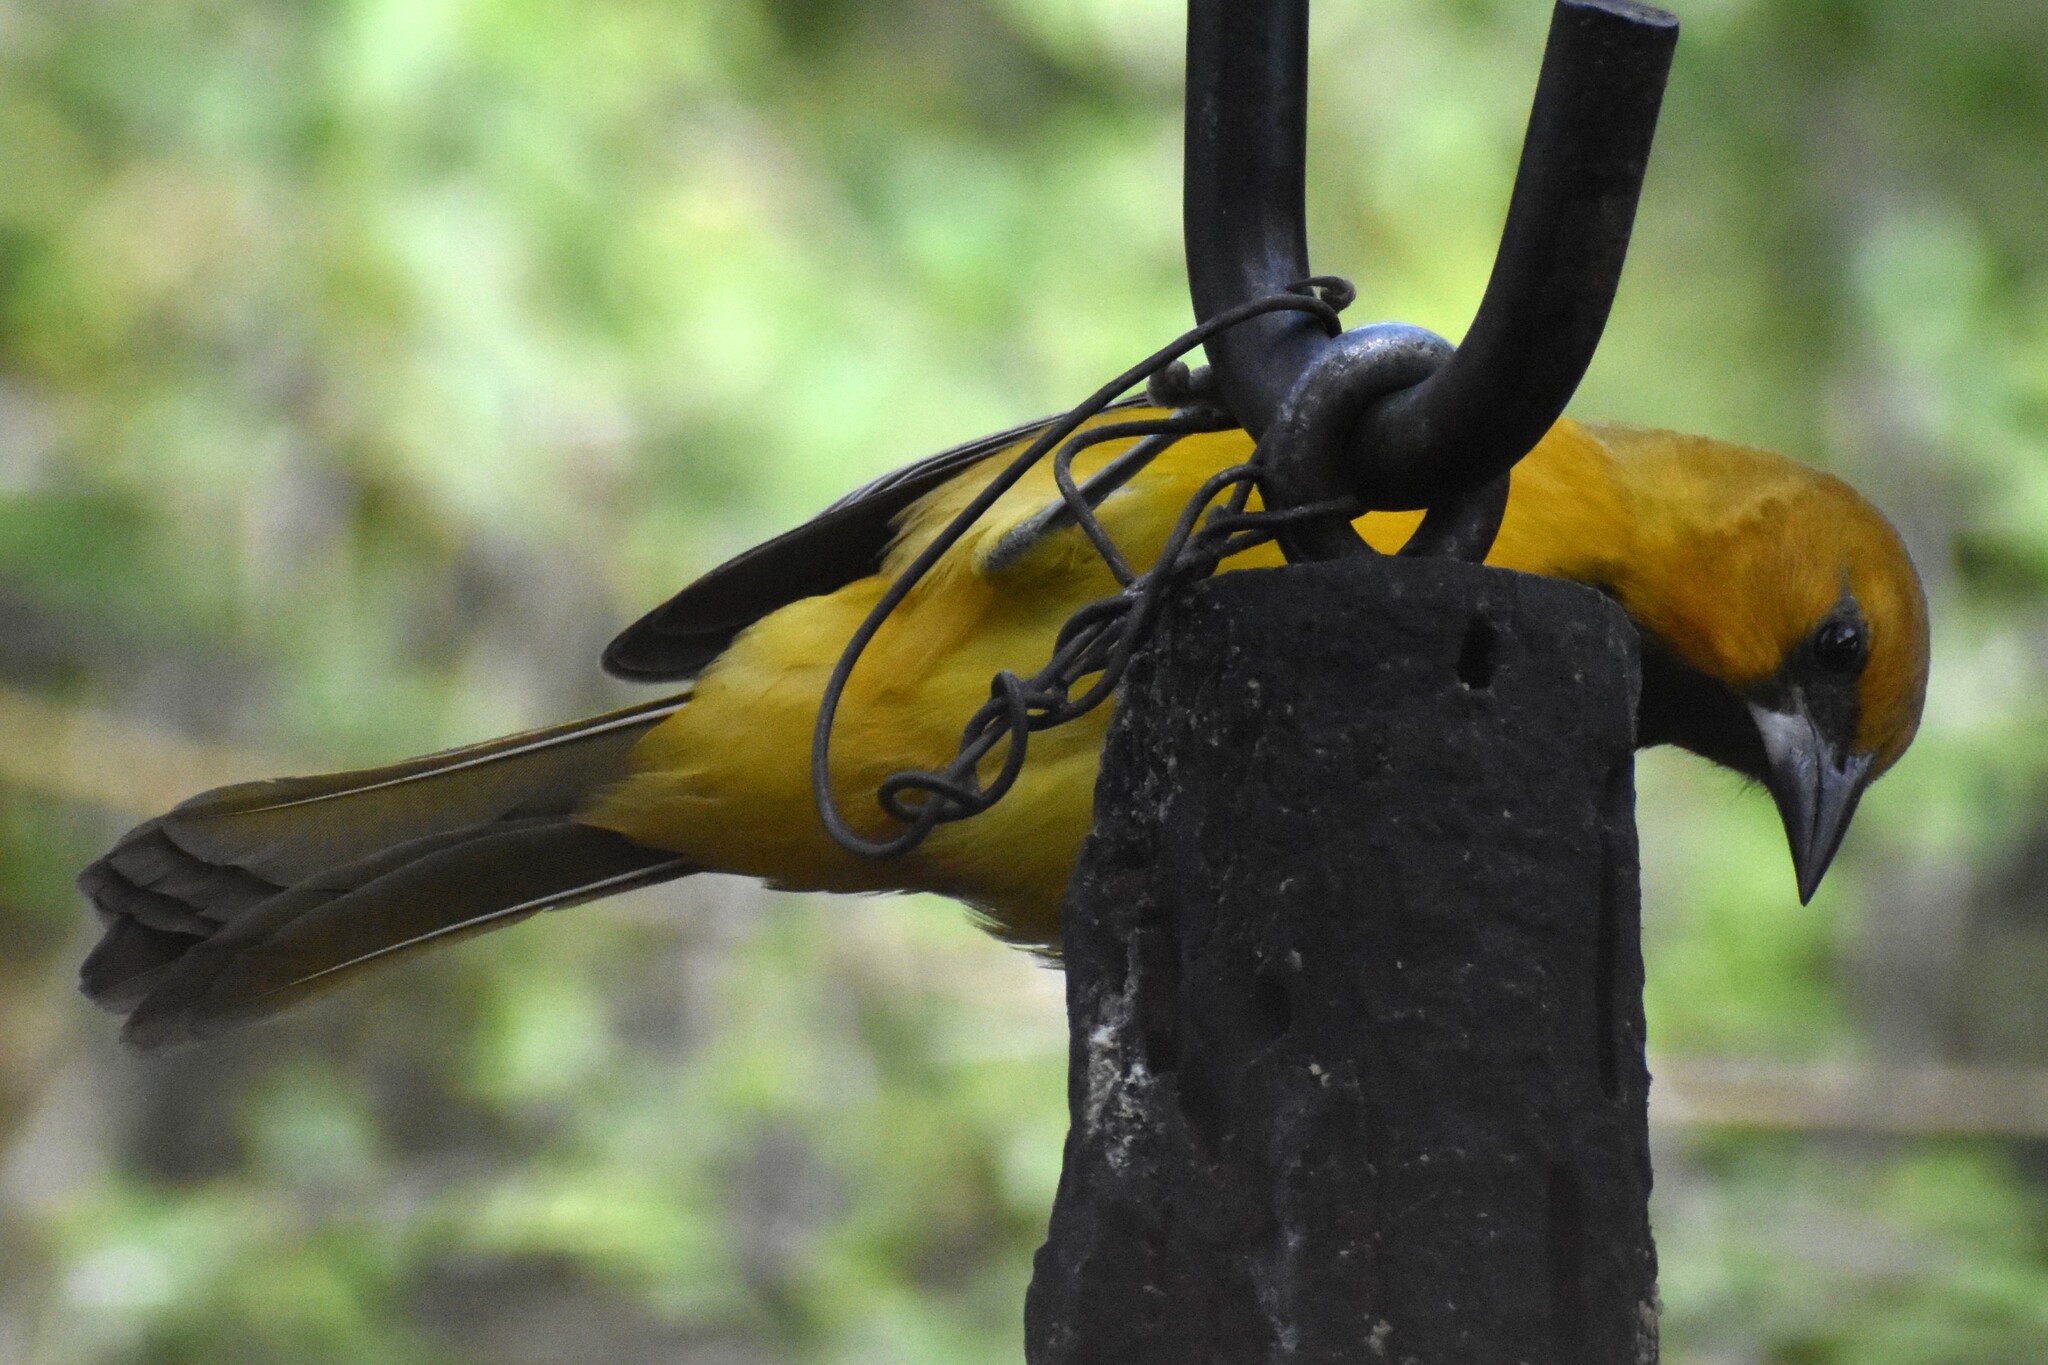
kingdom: Animalia
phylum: Chordata
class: Aves
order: Passeriformes
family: Icteridae
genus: Icterus
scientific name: Icterus gularis
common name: Altamira oriole
